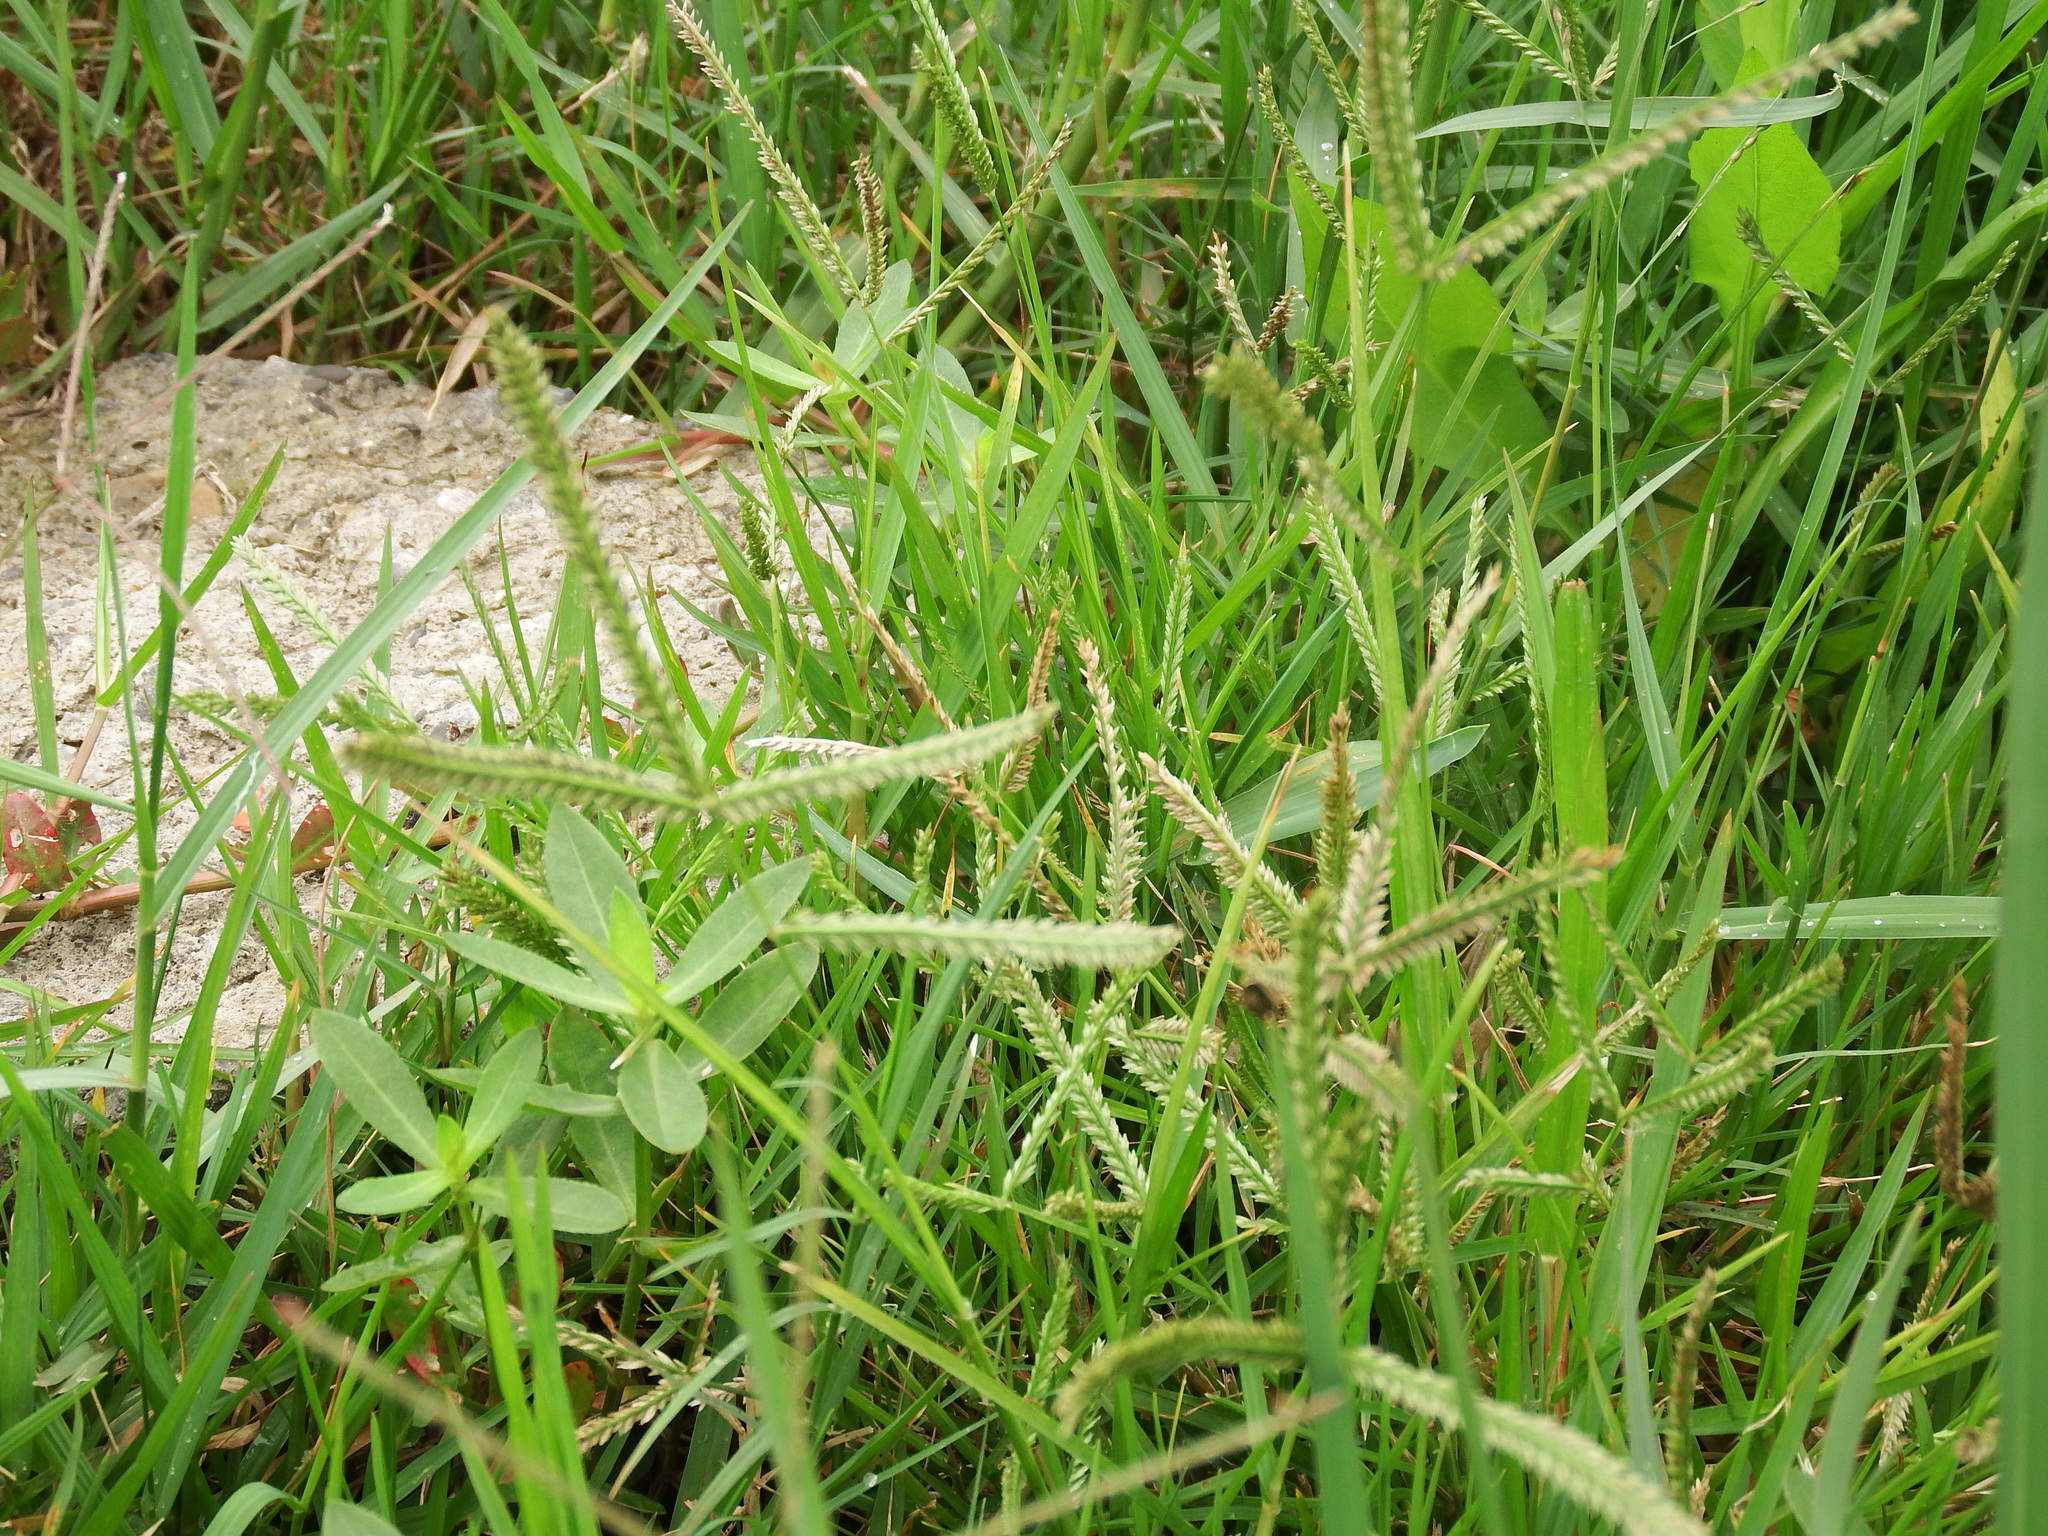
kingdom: Plantae
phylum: Tracheophyta
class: Liliopsida
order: Poales
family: Poaceae
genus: Eleusine
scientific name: Eleusine indica
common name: Yard-grass
